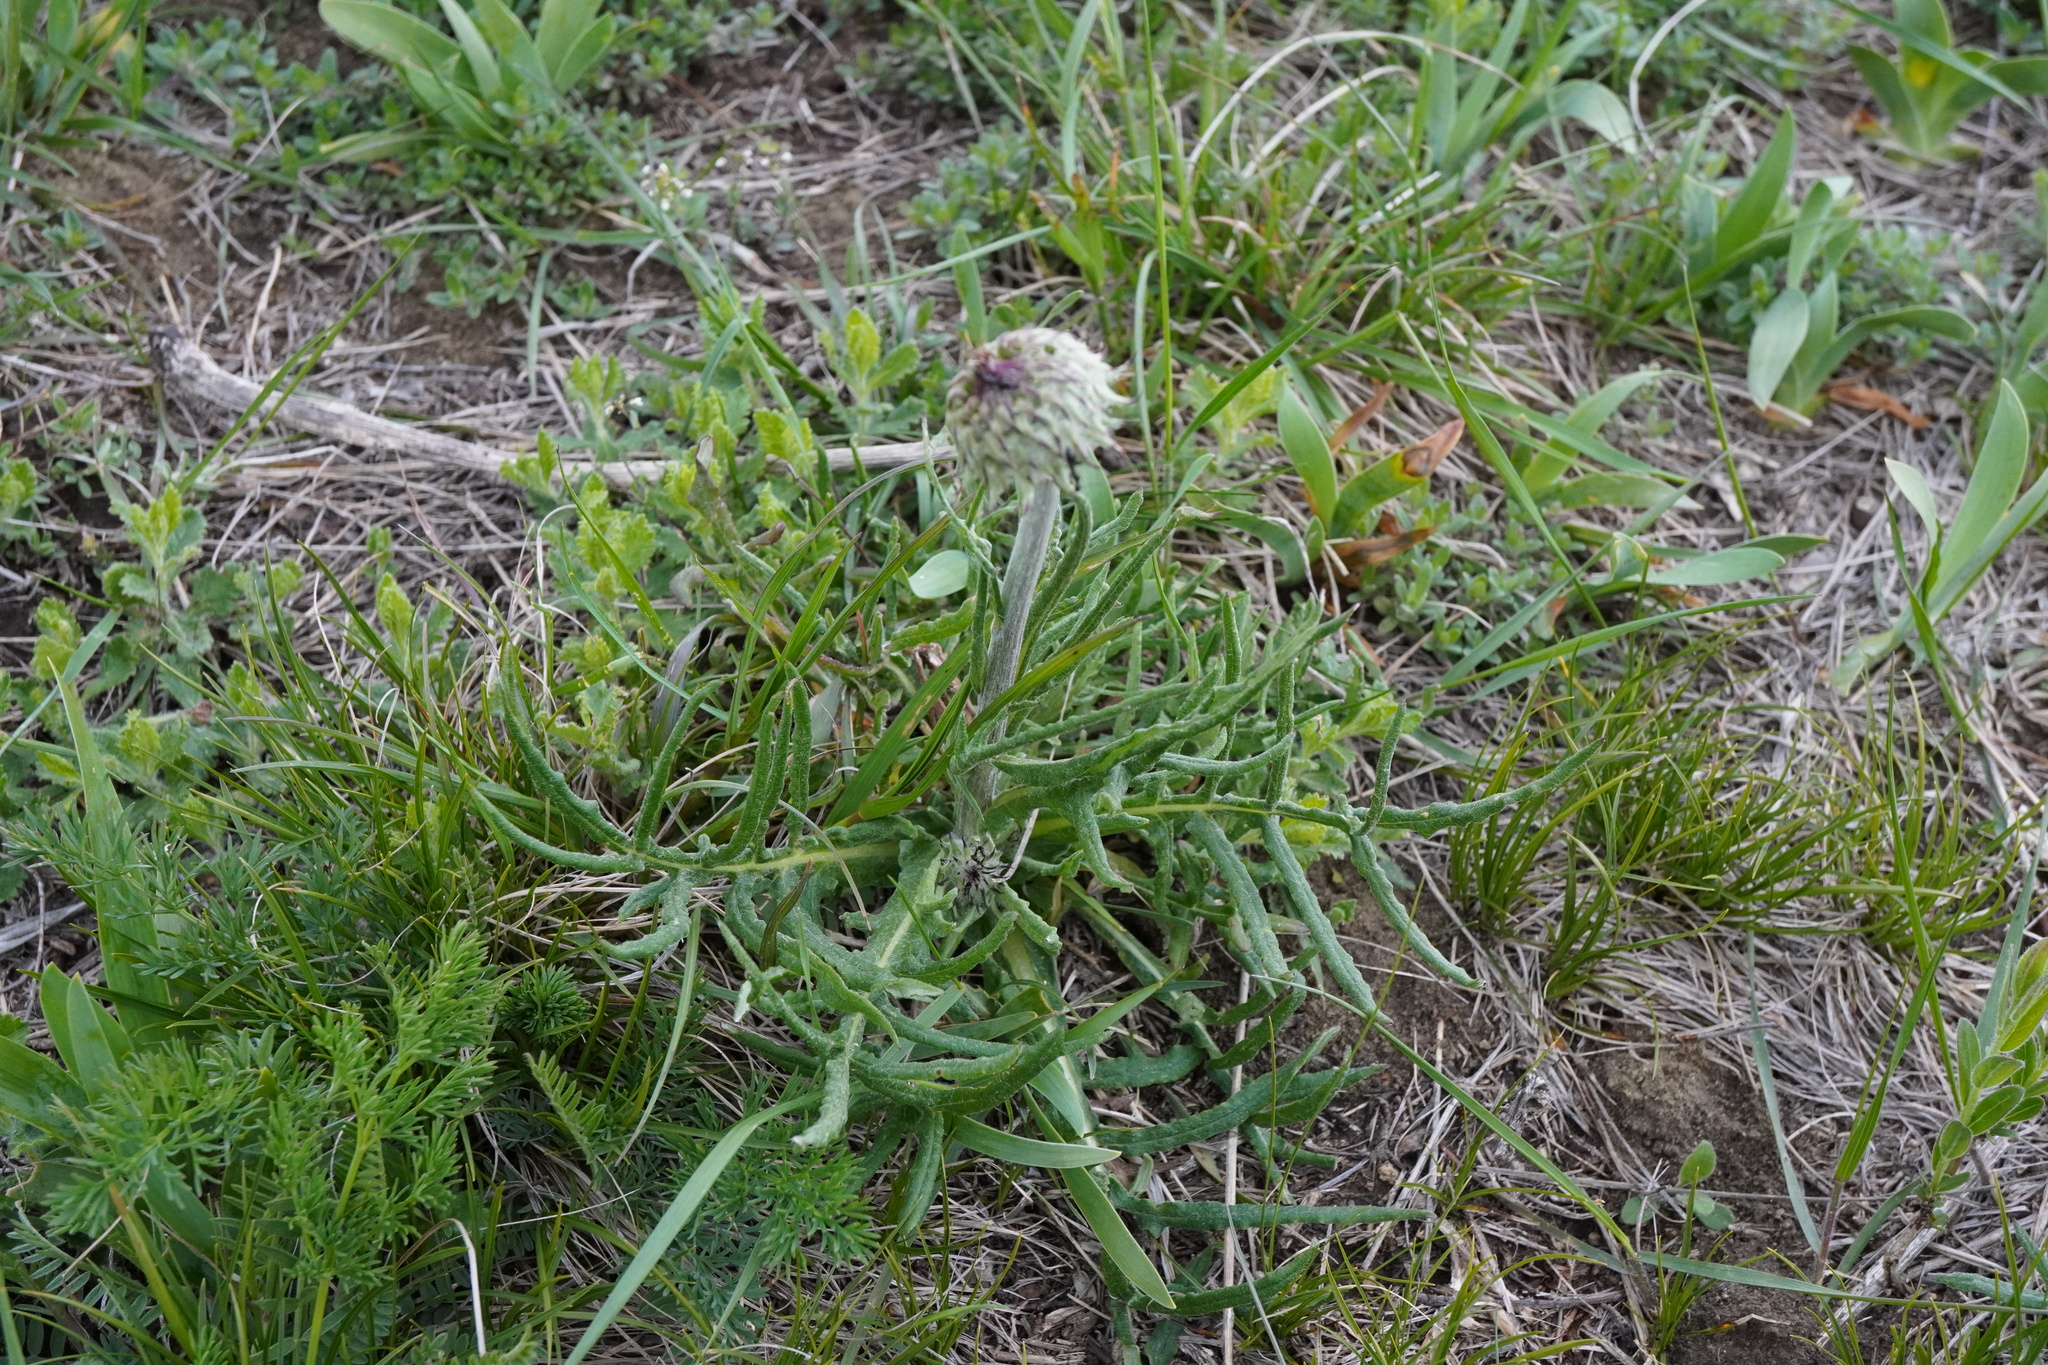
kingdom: Plantae
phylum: Tracheophyta
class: Magnoliopsida
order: Asterales
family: Asteraceae
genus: Jurinea
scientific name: Jurinea mollis
